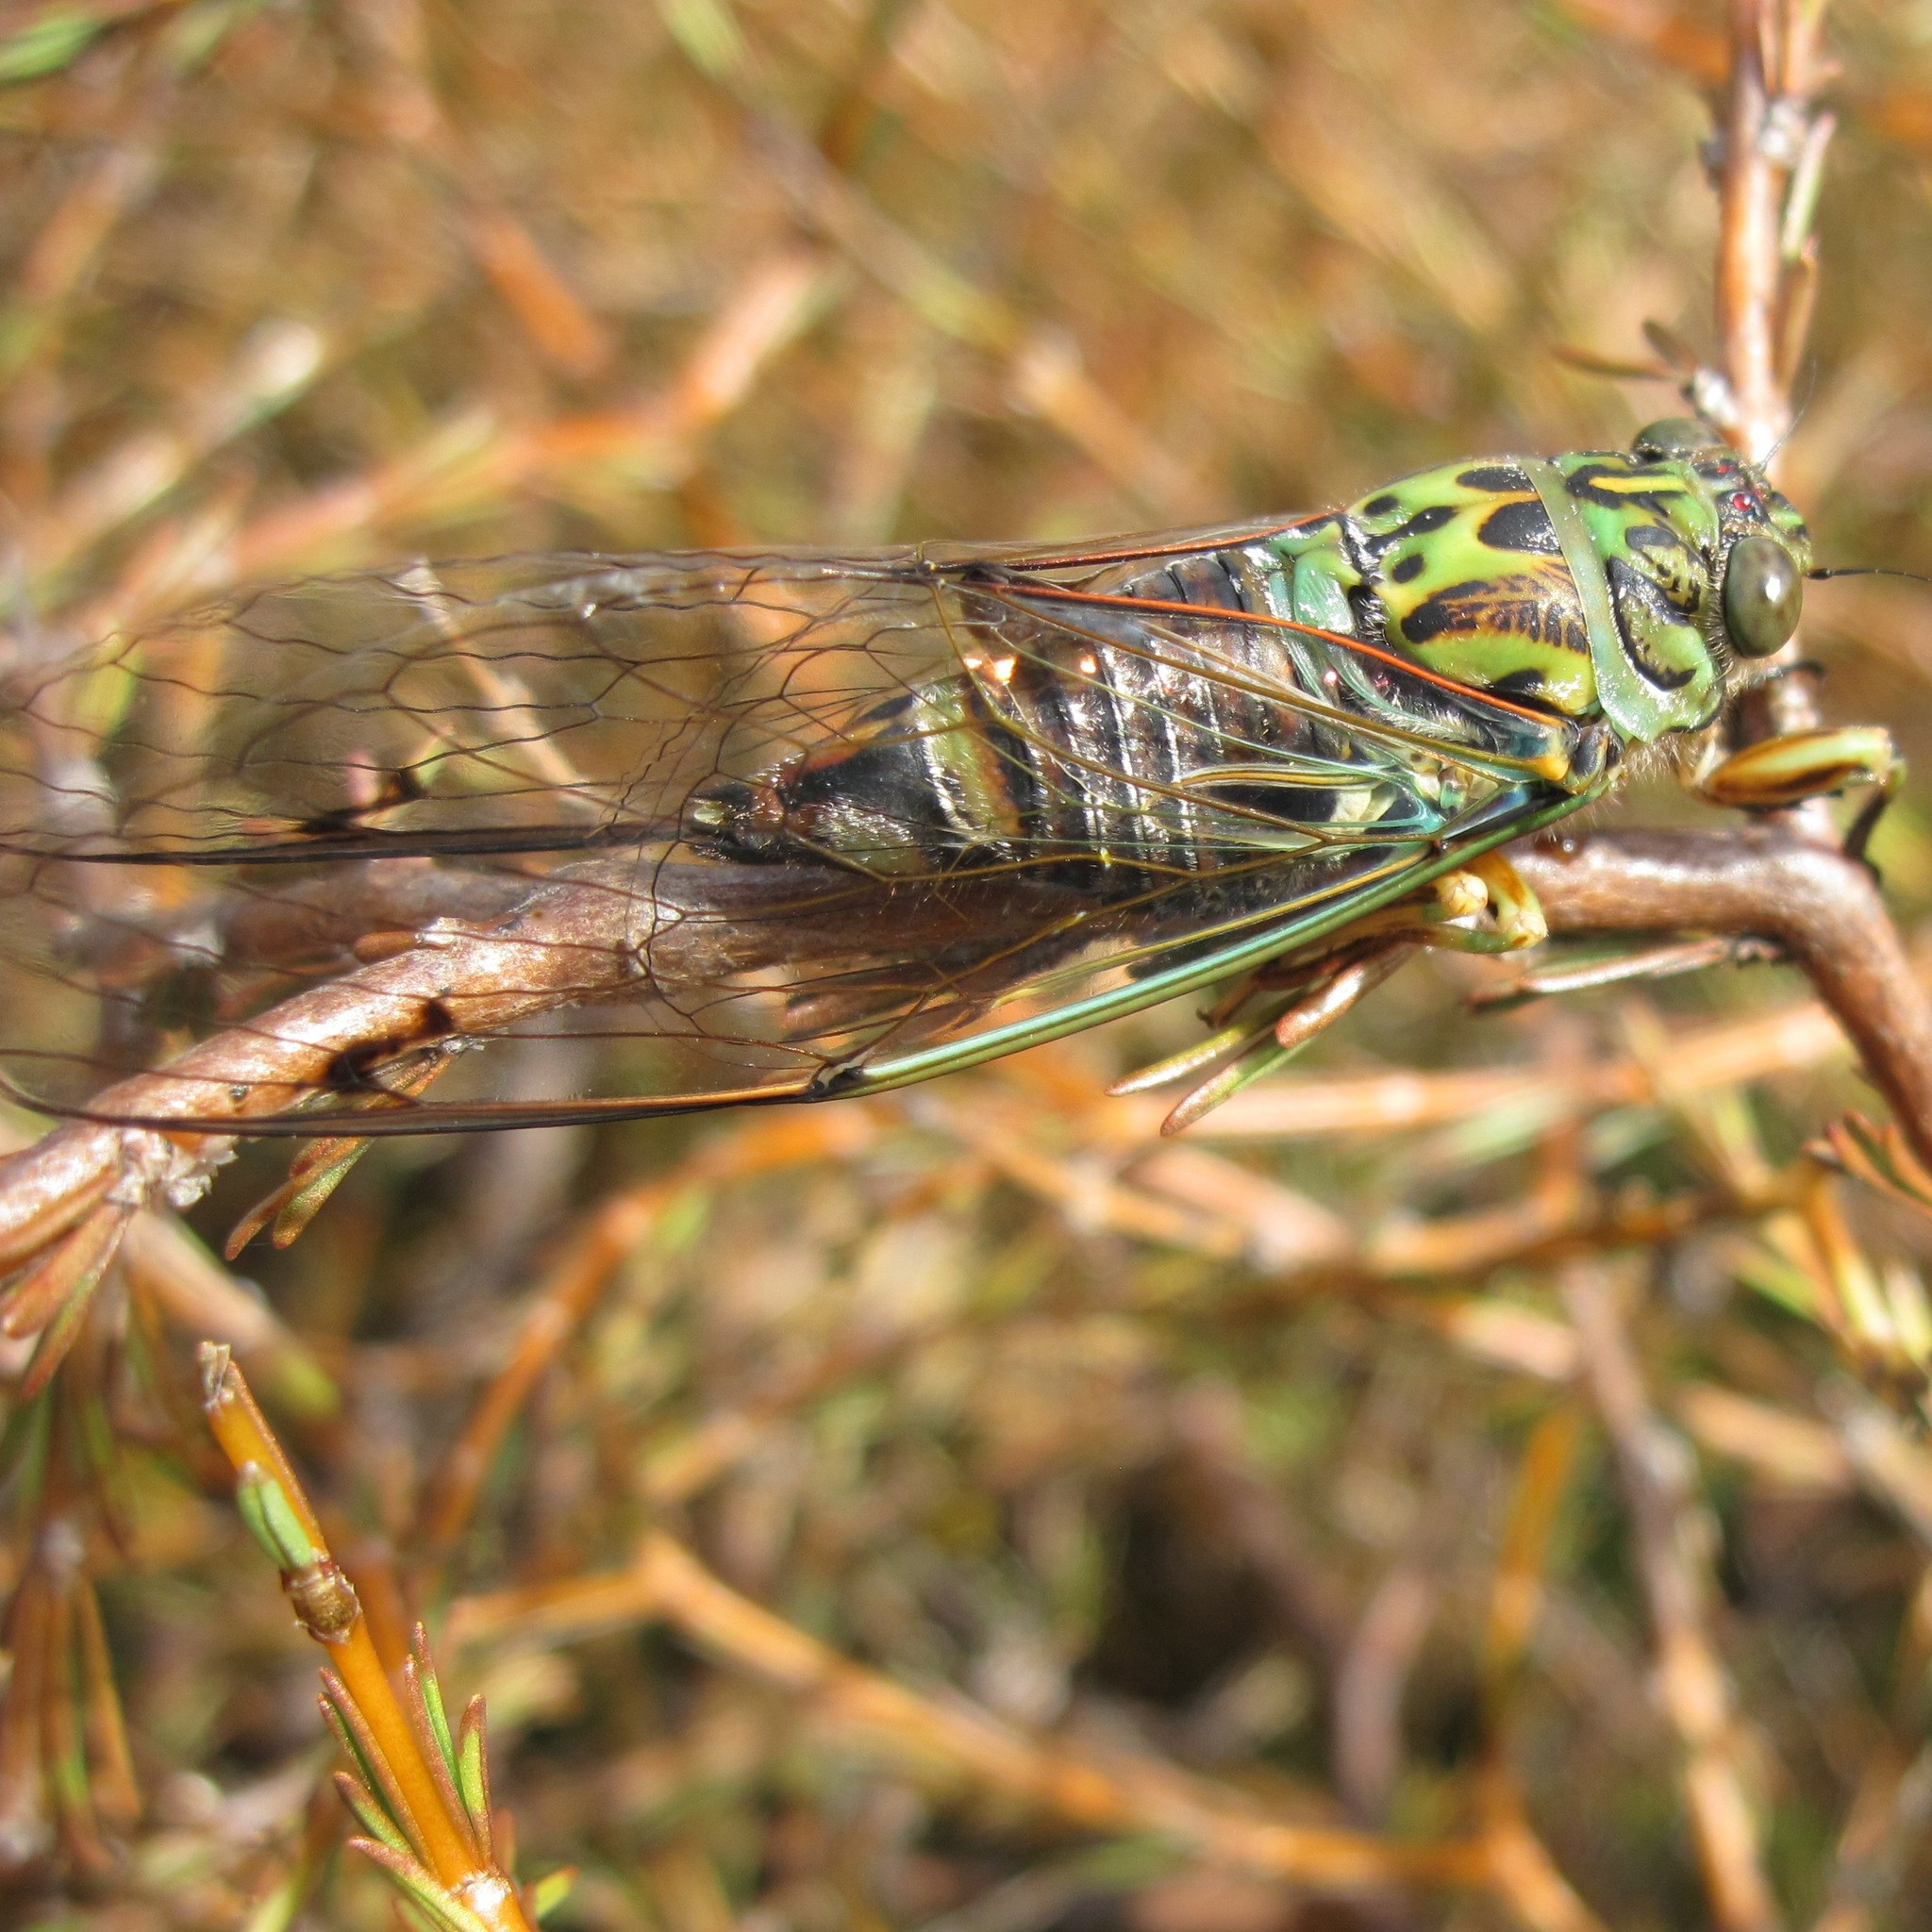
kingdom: Animalia
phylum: Arthropoda
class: Insecta
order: Hemiptera
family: Cicadidae
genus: Amphipsalta
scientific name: Amphipsalta zelandica
